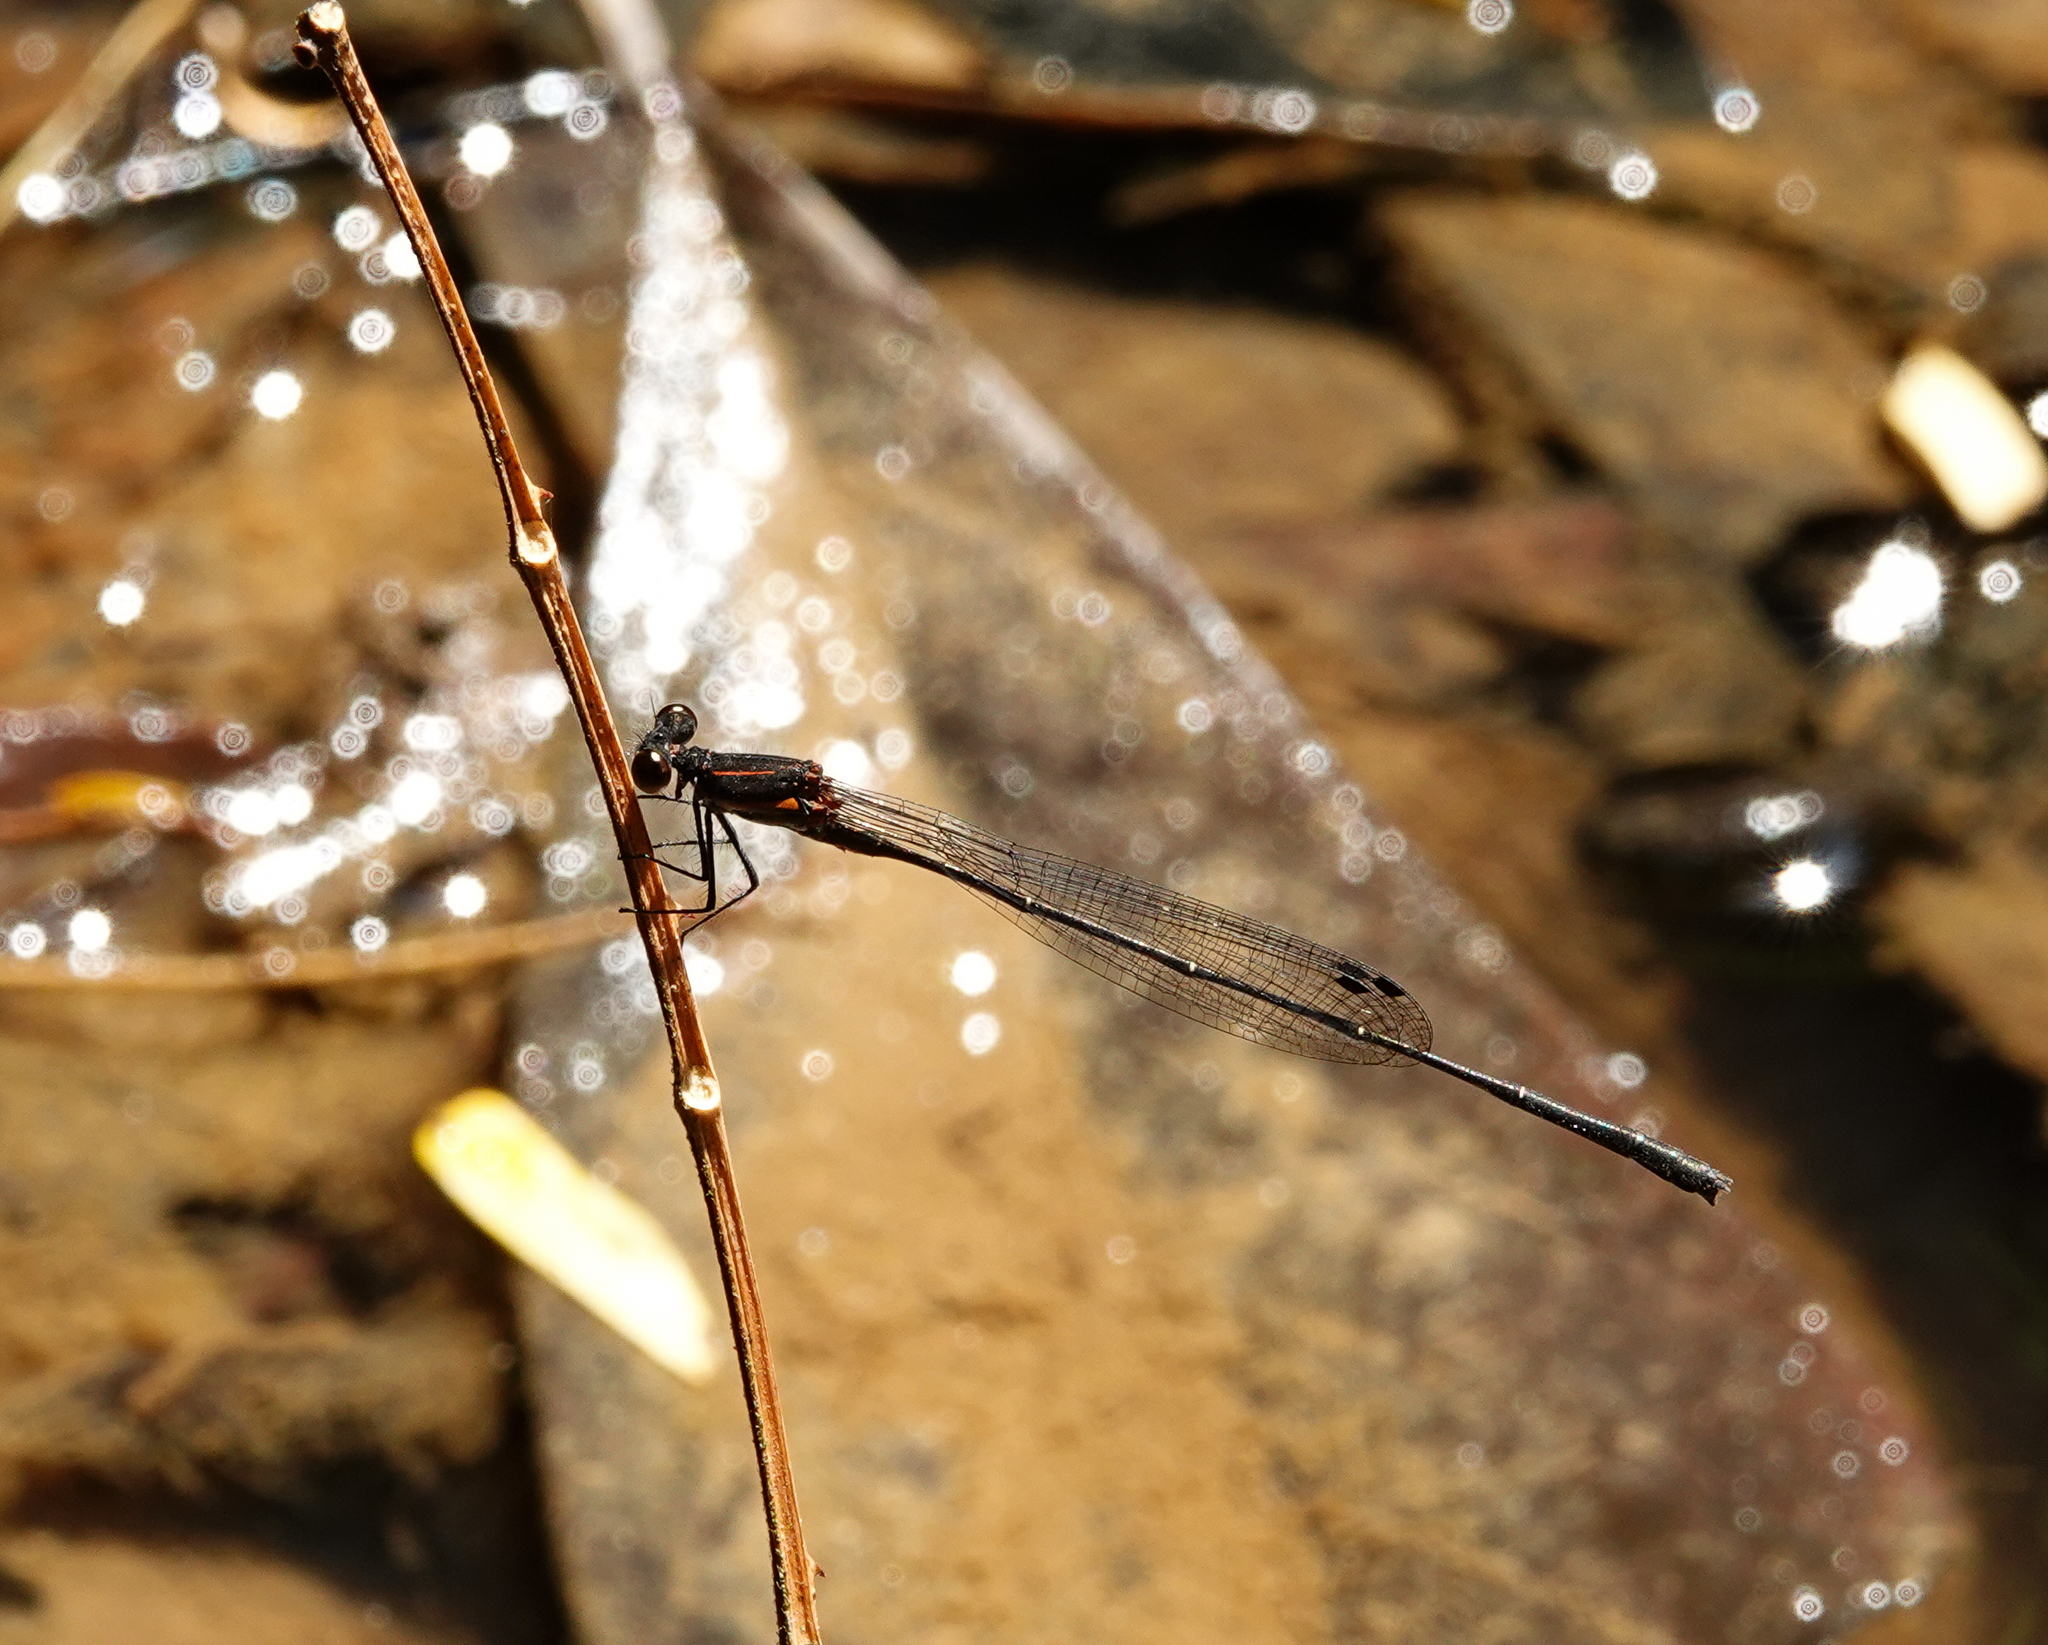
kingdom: Animalia
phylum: Arthropoda
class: Insecta
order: Odonata
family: Platycnemididae
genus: Prodasineura
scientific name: Prodasineura verticalis
